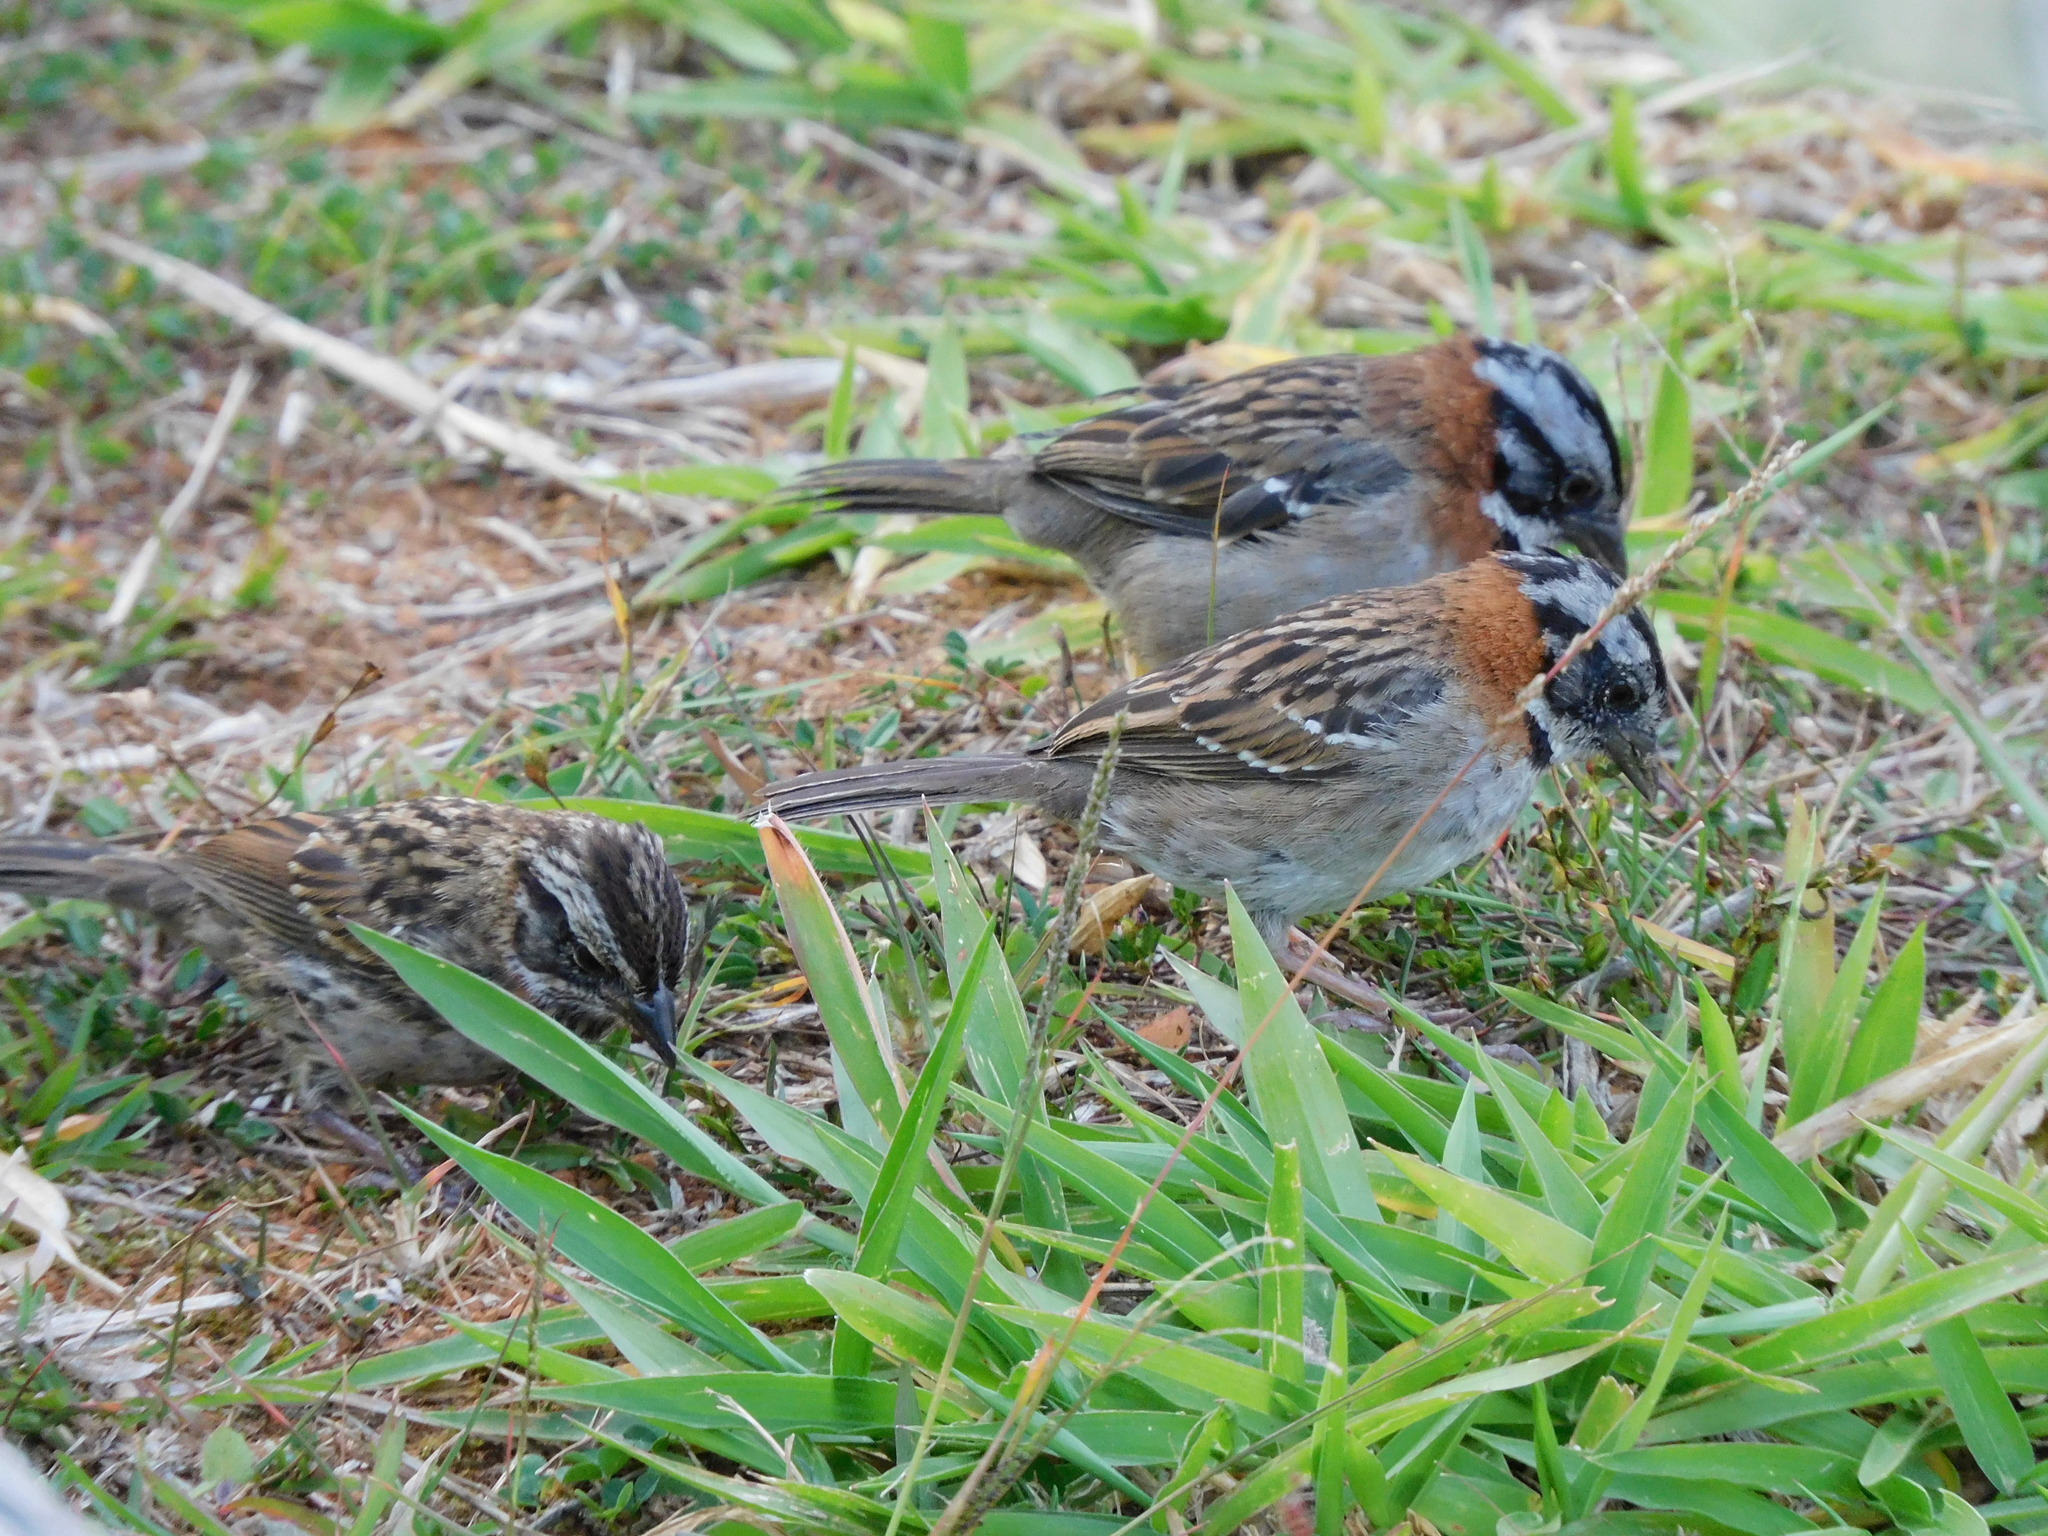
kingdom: Animalia
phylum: Chordata
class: Aves
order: Passeriformes
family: Passerellidae
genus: Zonotrichia
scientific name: Zonotrichia capensis
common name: Rufous-collared sparrow
